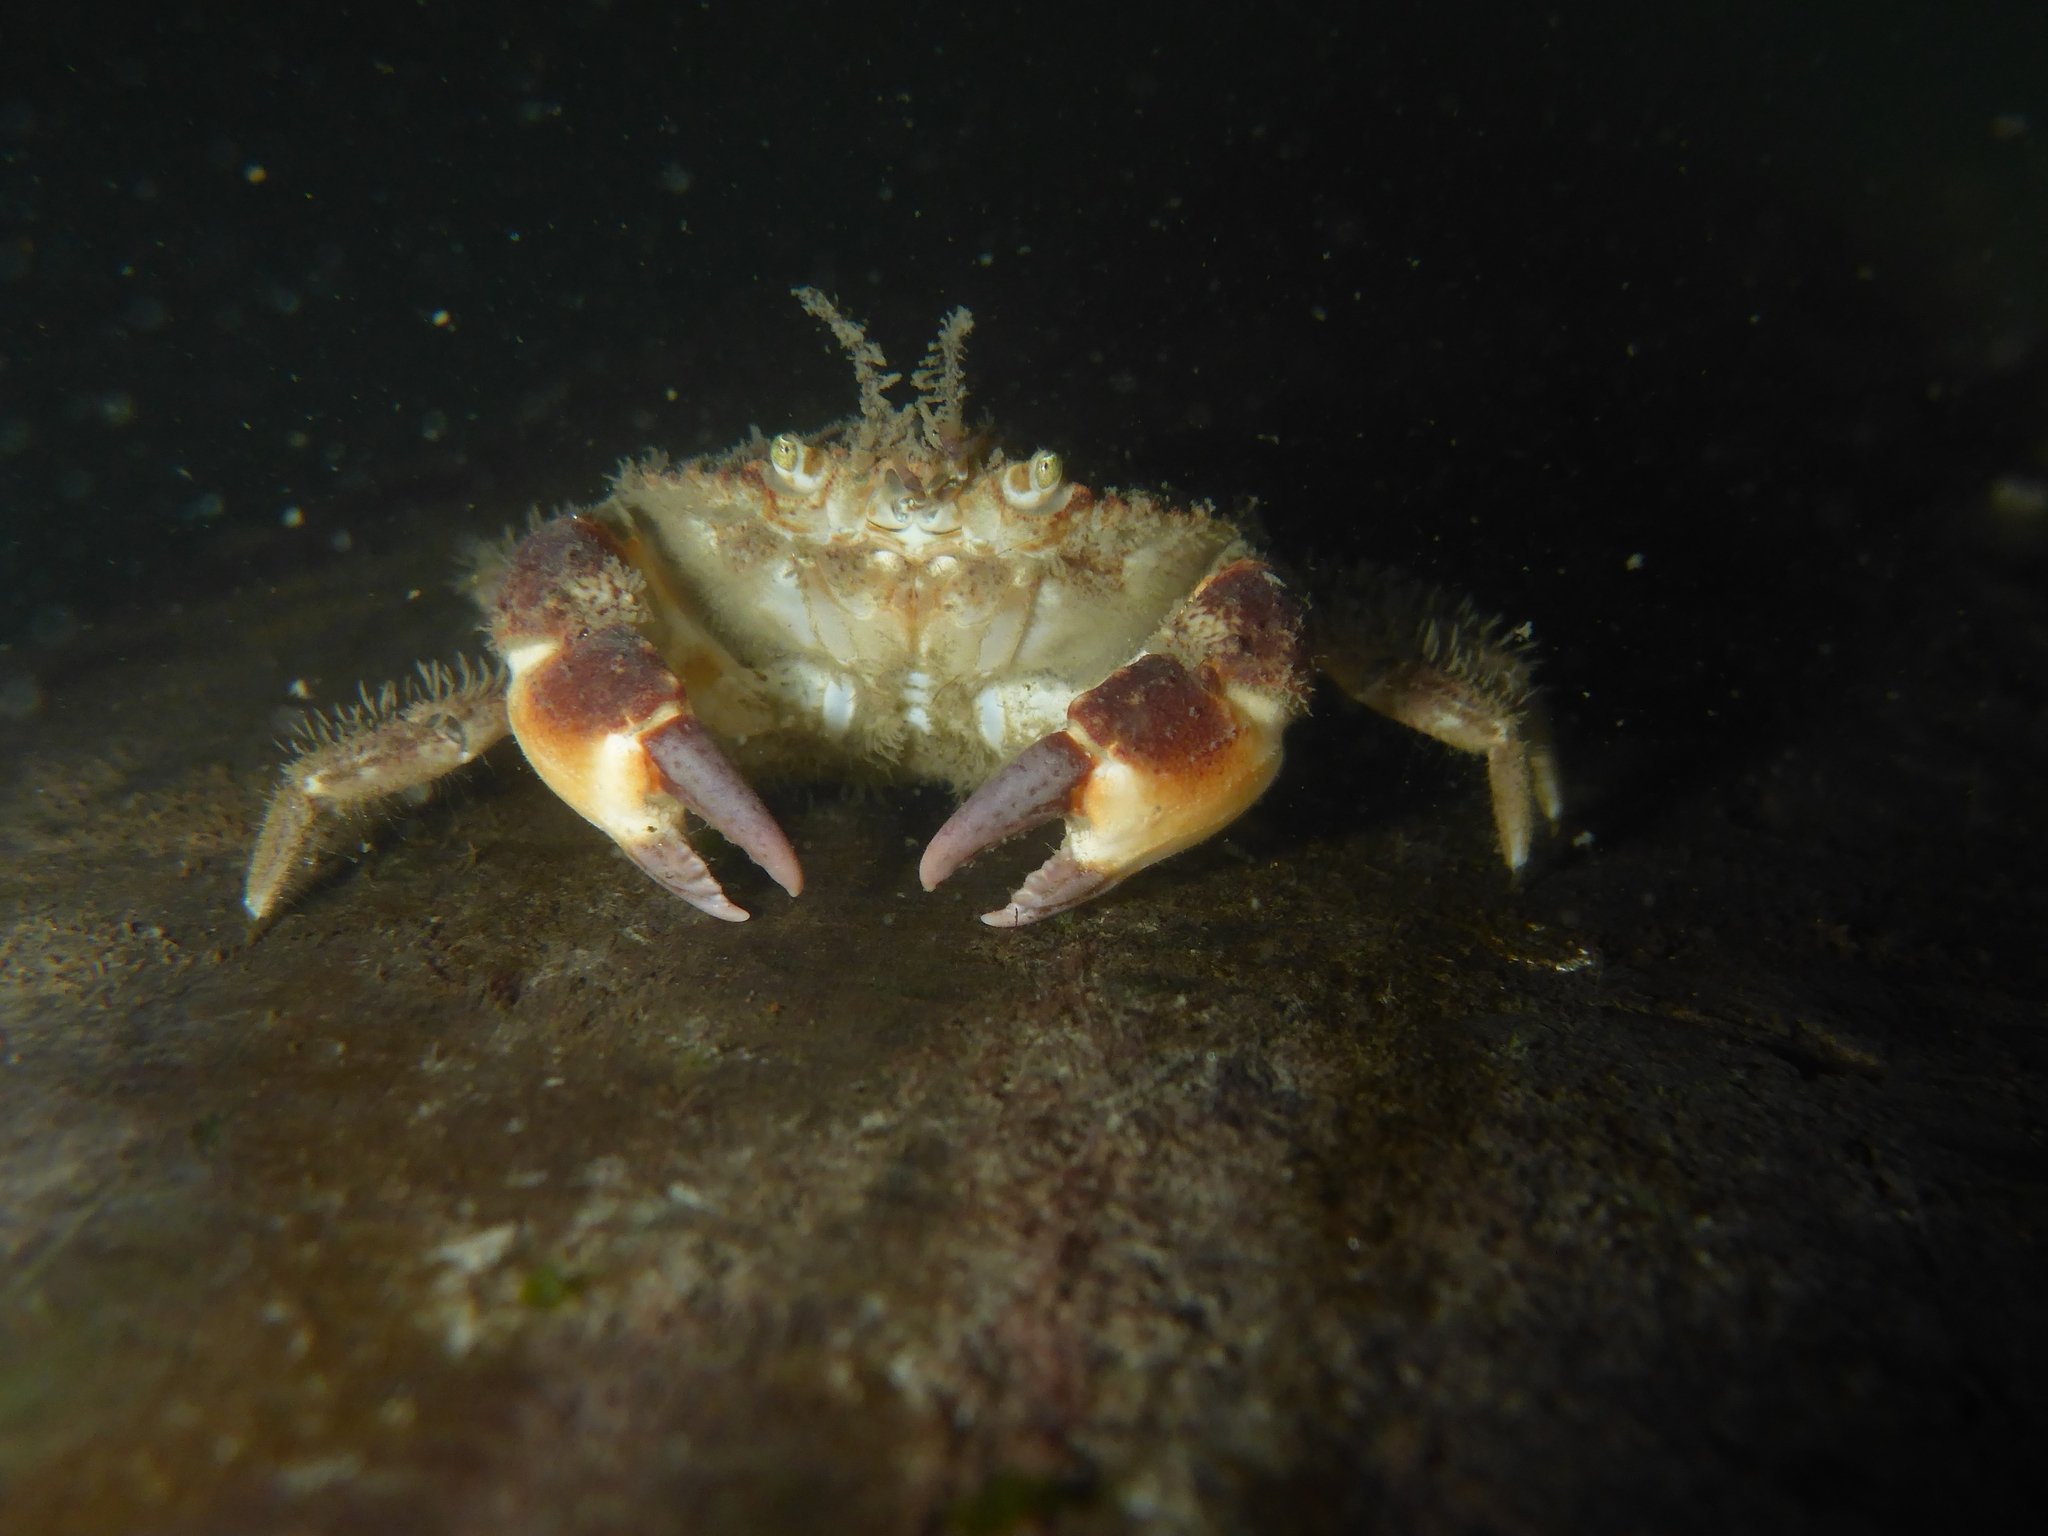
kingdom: Animalia
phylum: Arthropoda
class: Malacostraca
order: Decapoda
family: Cancridae
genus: Glebocarcinus
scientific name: Glebocarcinus oregonensis
